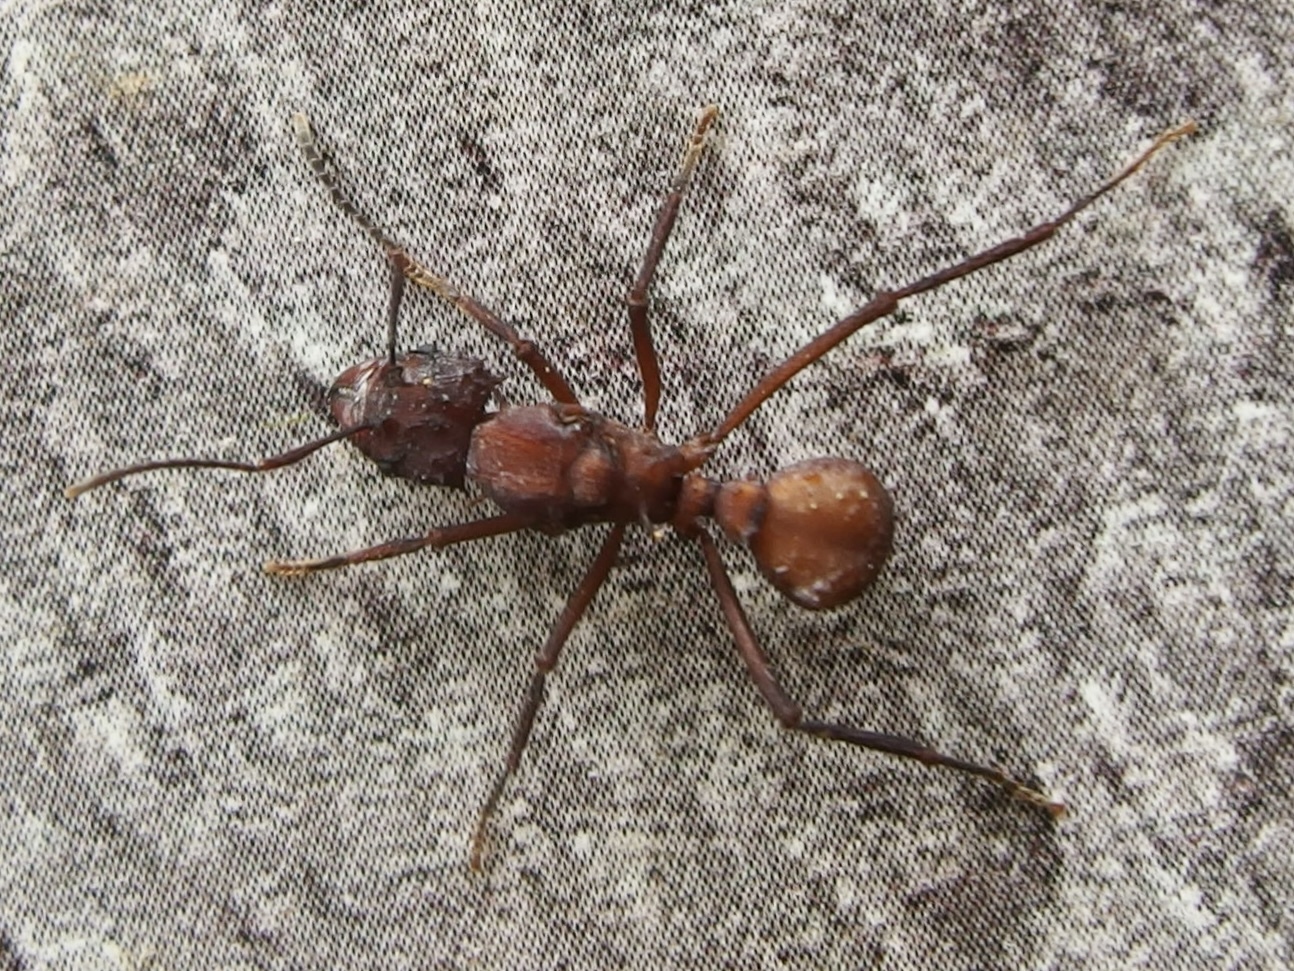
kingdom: Animalia
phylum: Arthropoda
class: Insecta
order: Hymenoptera
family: Formicidae
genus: Acromyrmex
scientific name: Acromyrmex
